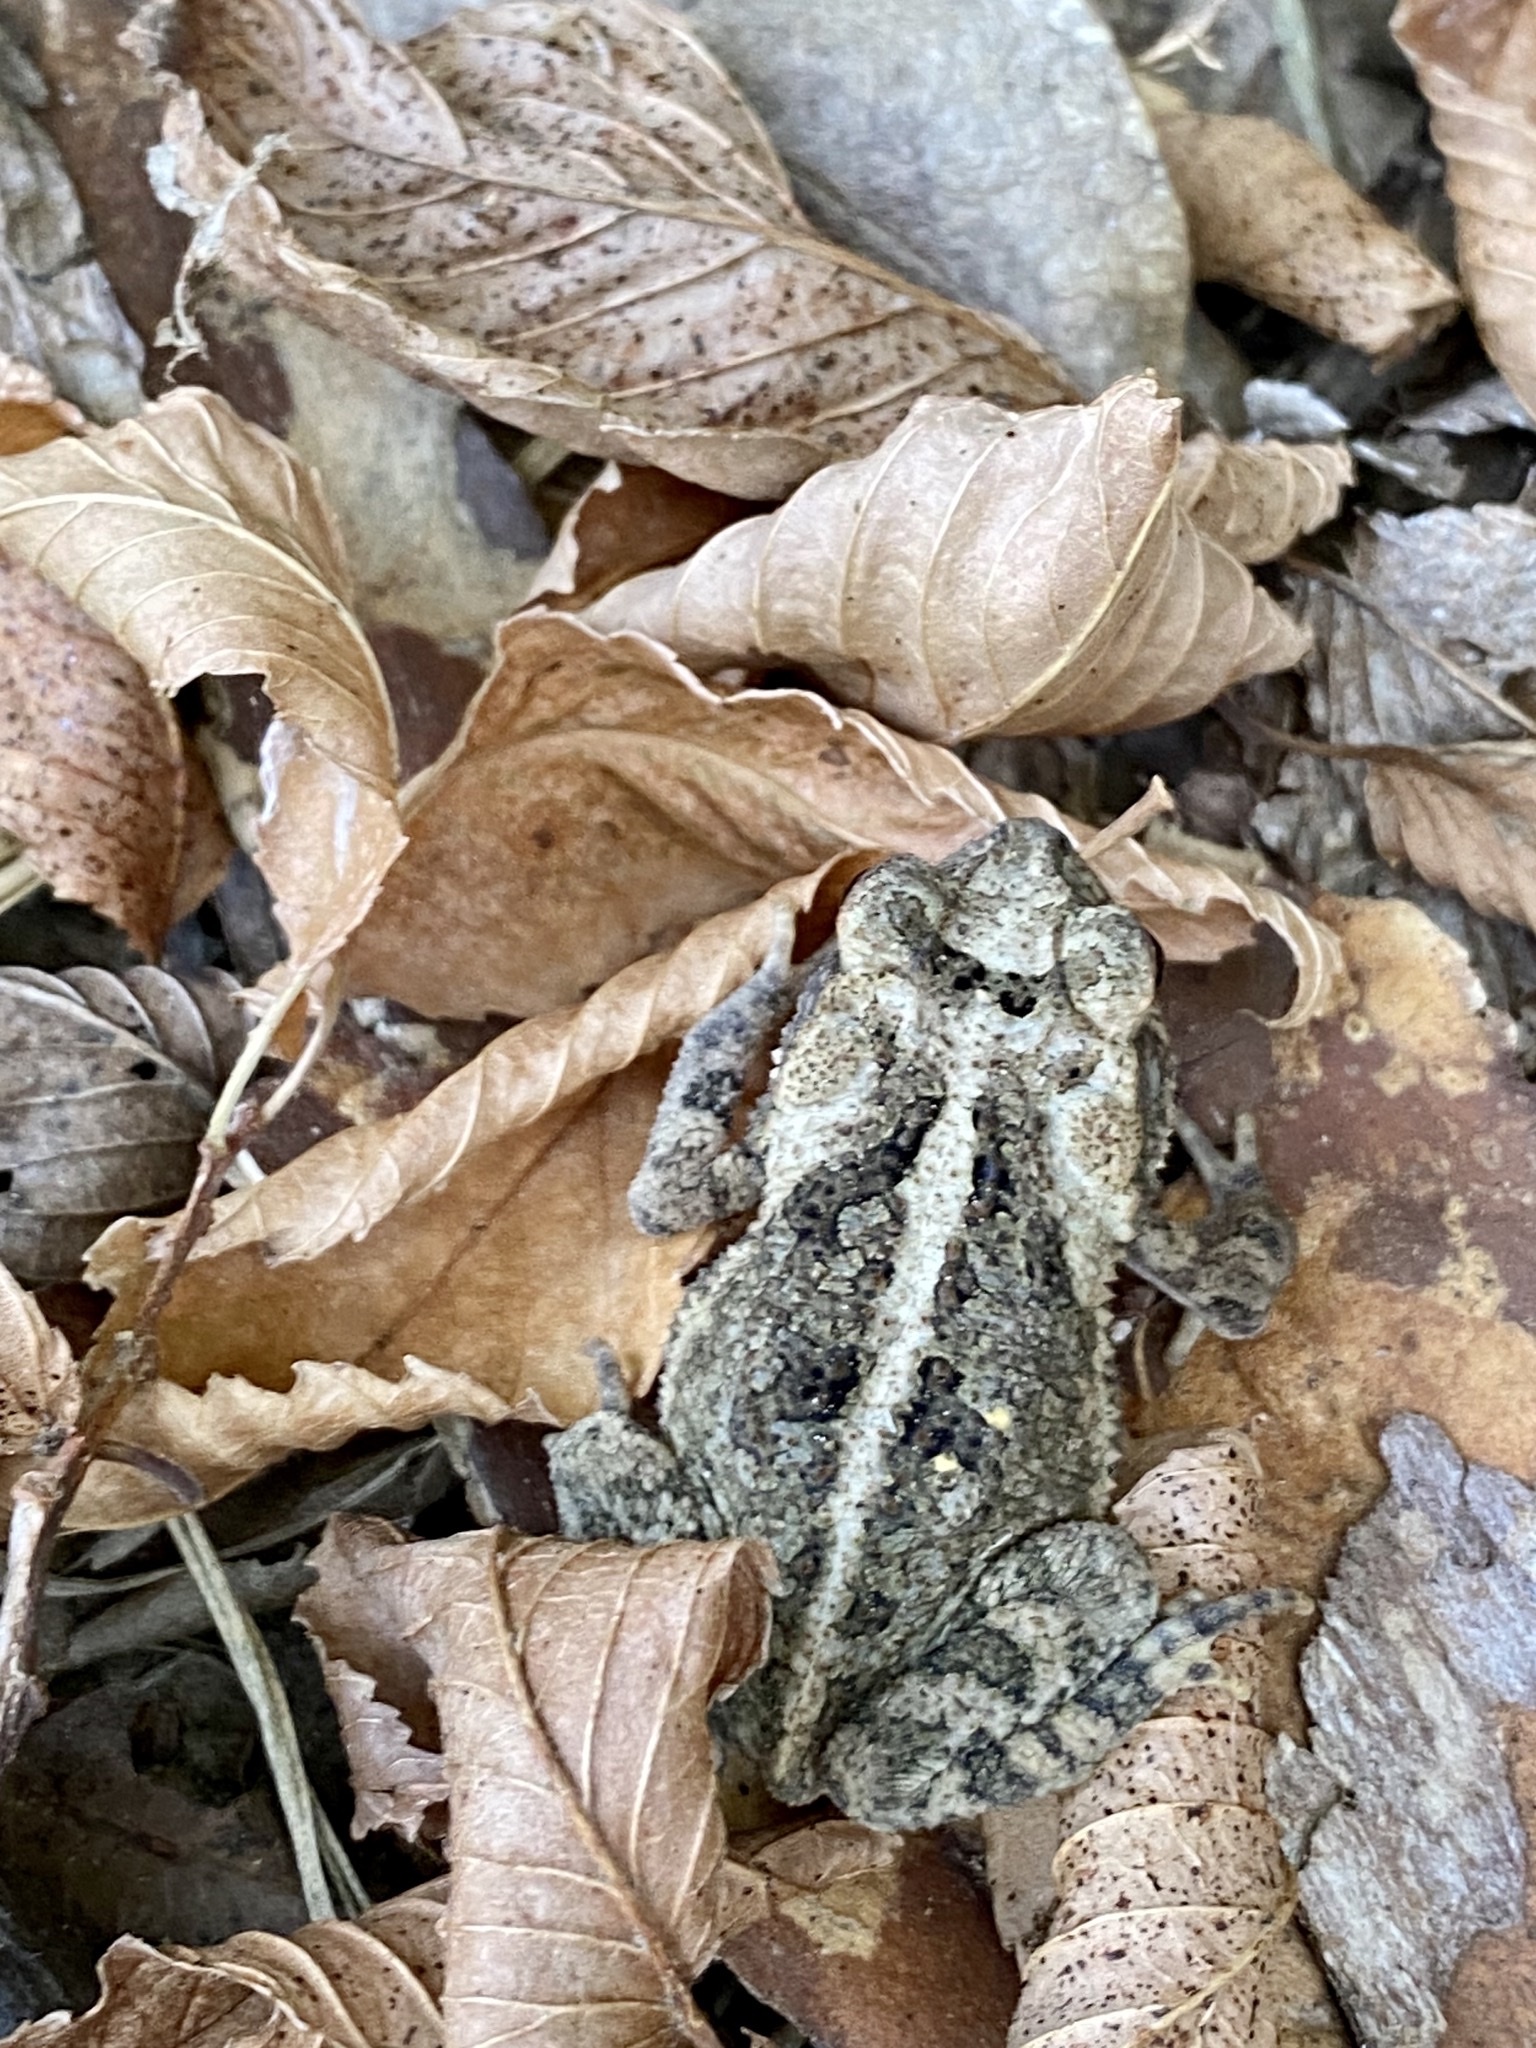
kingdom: Animalia
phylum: Chordata
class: Amphibia
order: Anura
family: Bufonidae
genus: Incilius
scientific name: Incilius nebulifer
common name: Gulf coast toad
